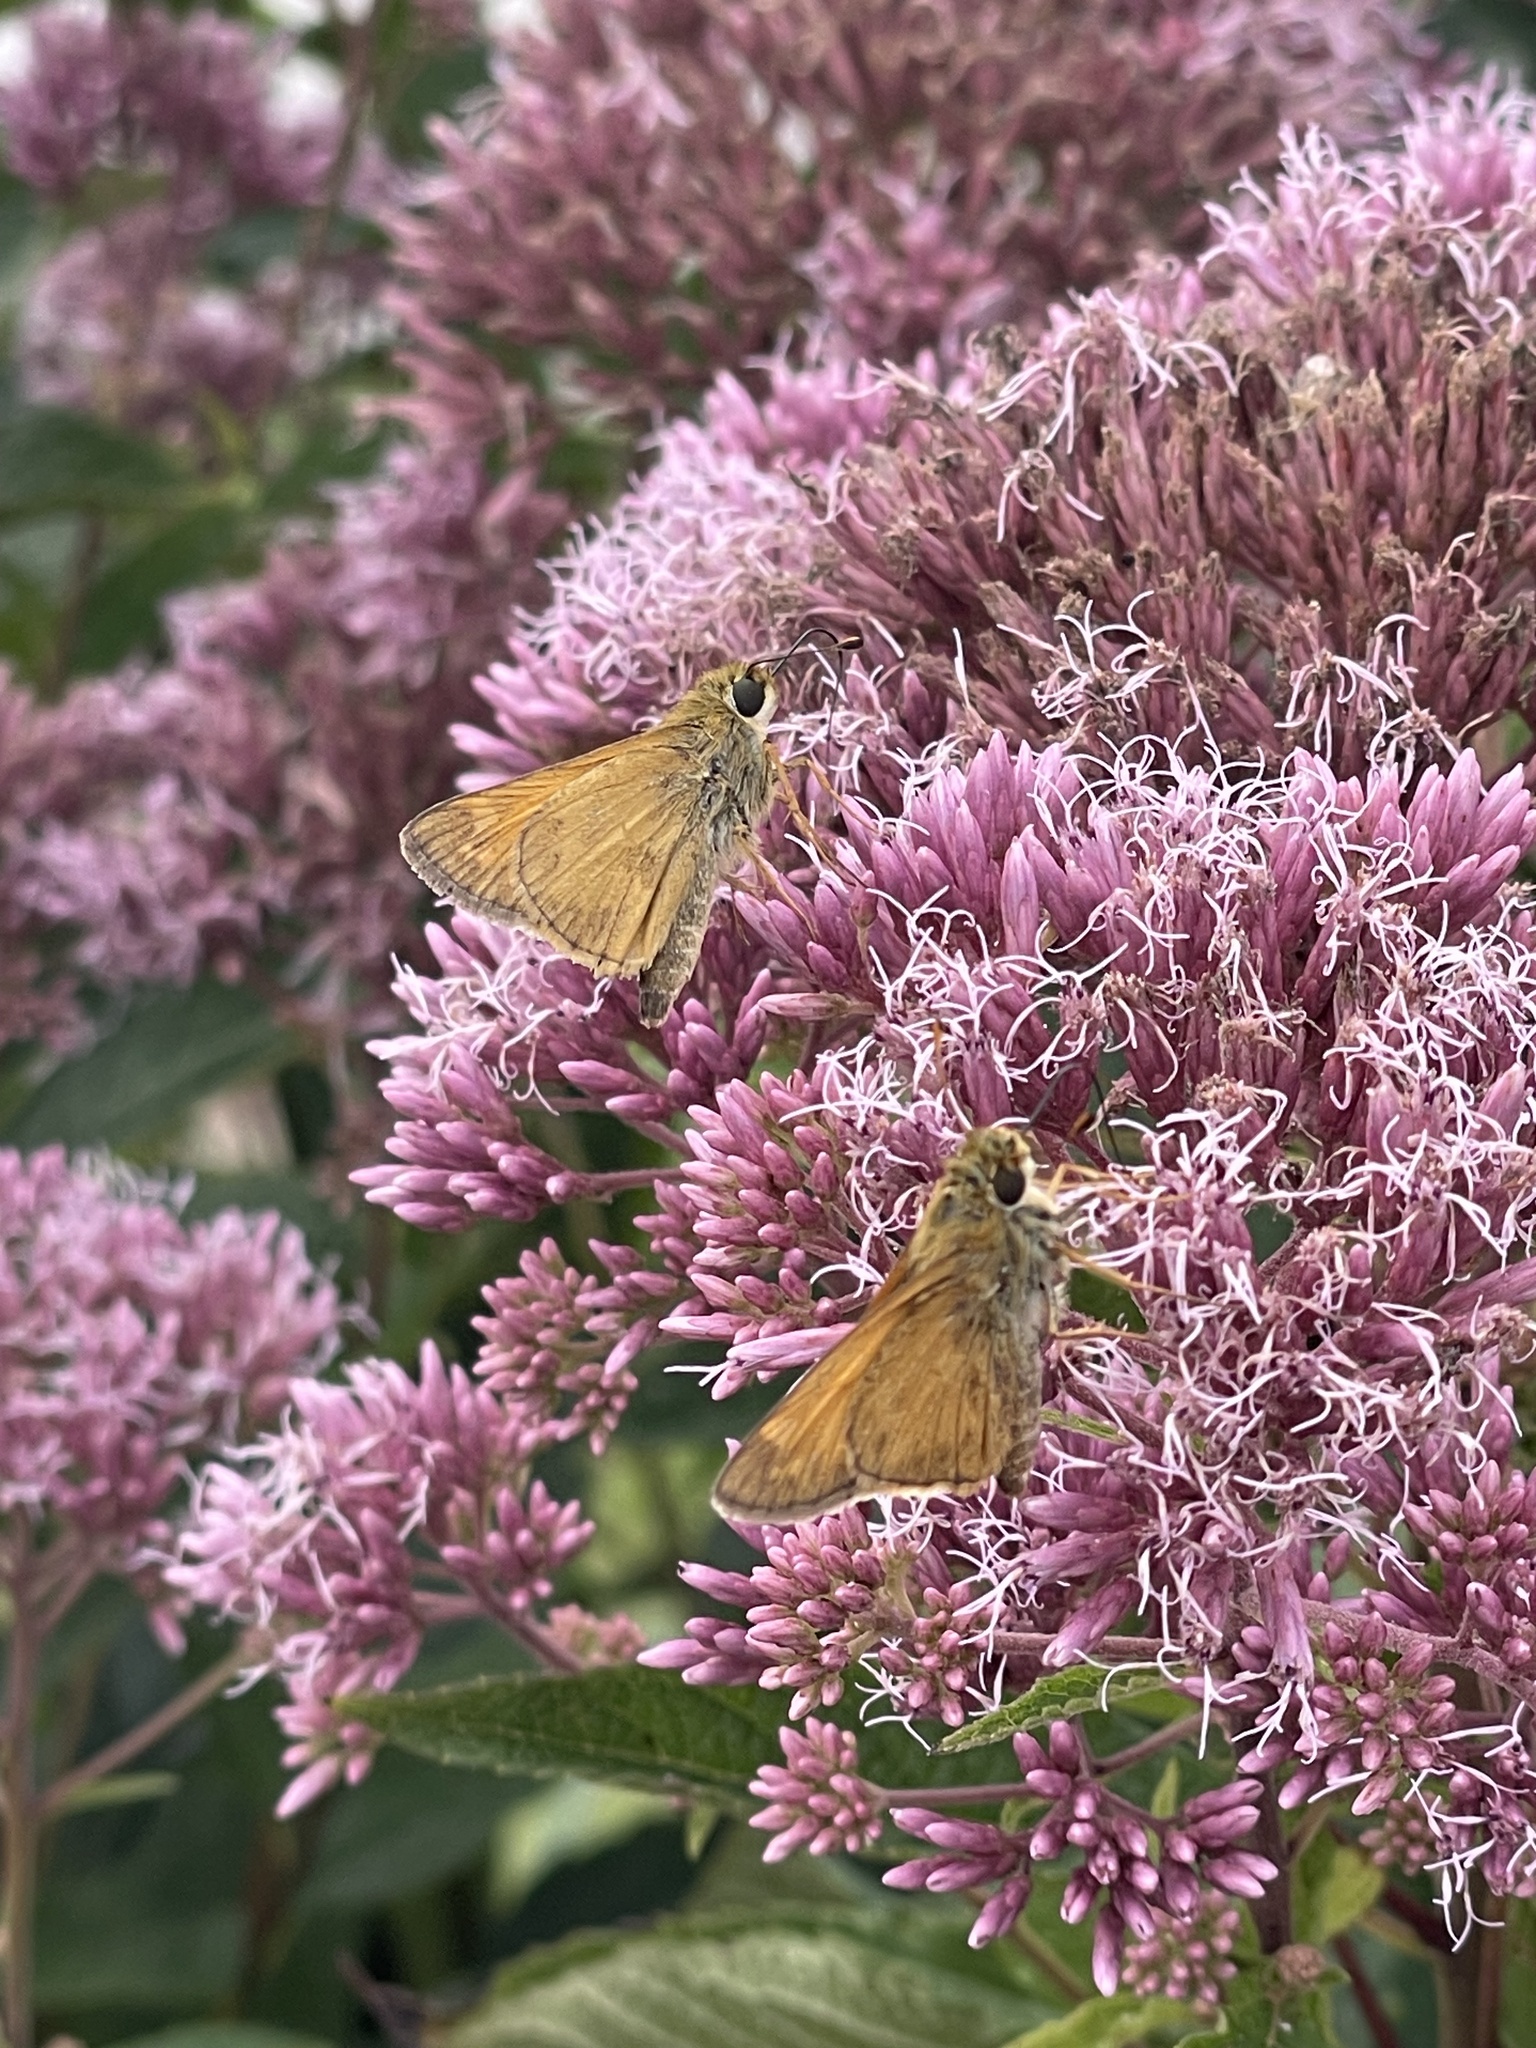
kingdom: Animalia
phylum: Arthropoda
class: Insecta
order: Lepidoptera
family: Hesperiidae
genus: Atalopedes
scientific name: Atalopedes
